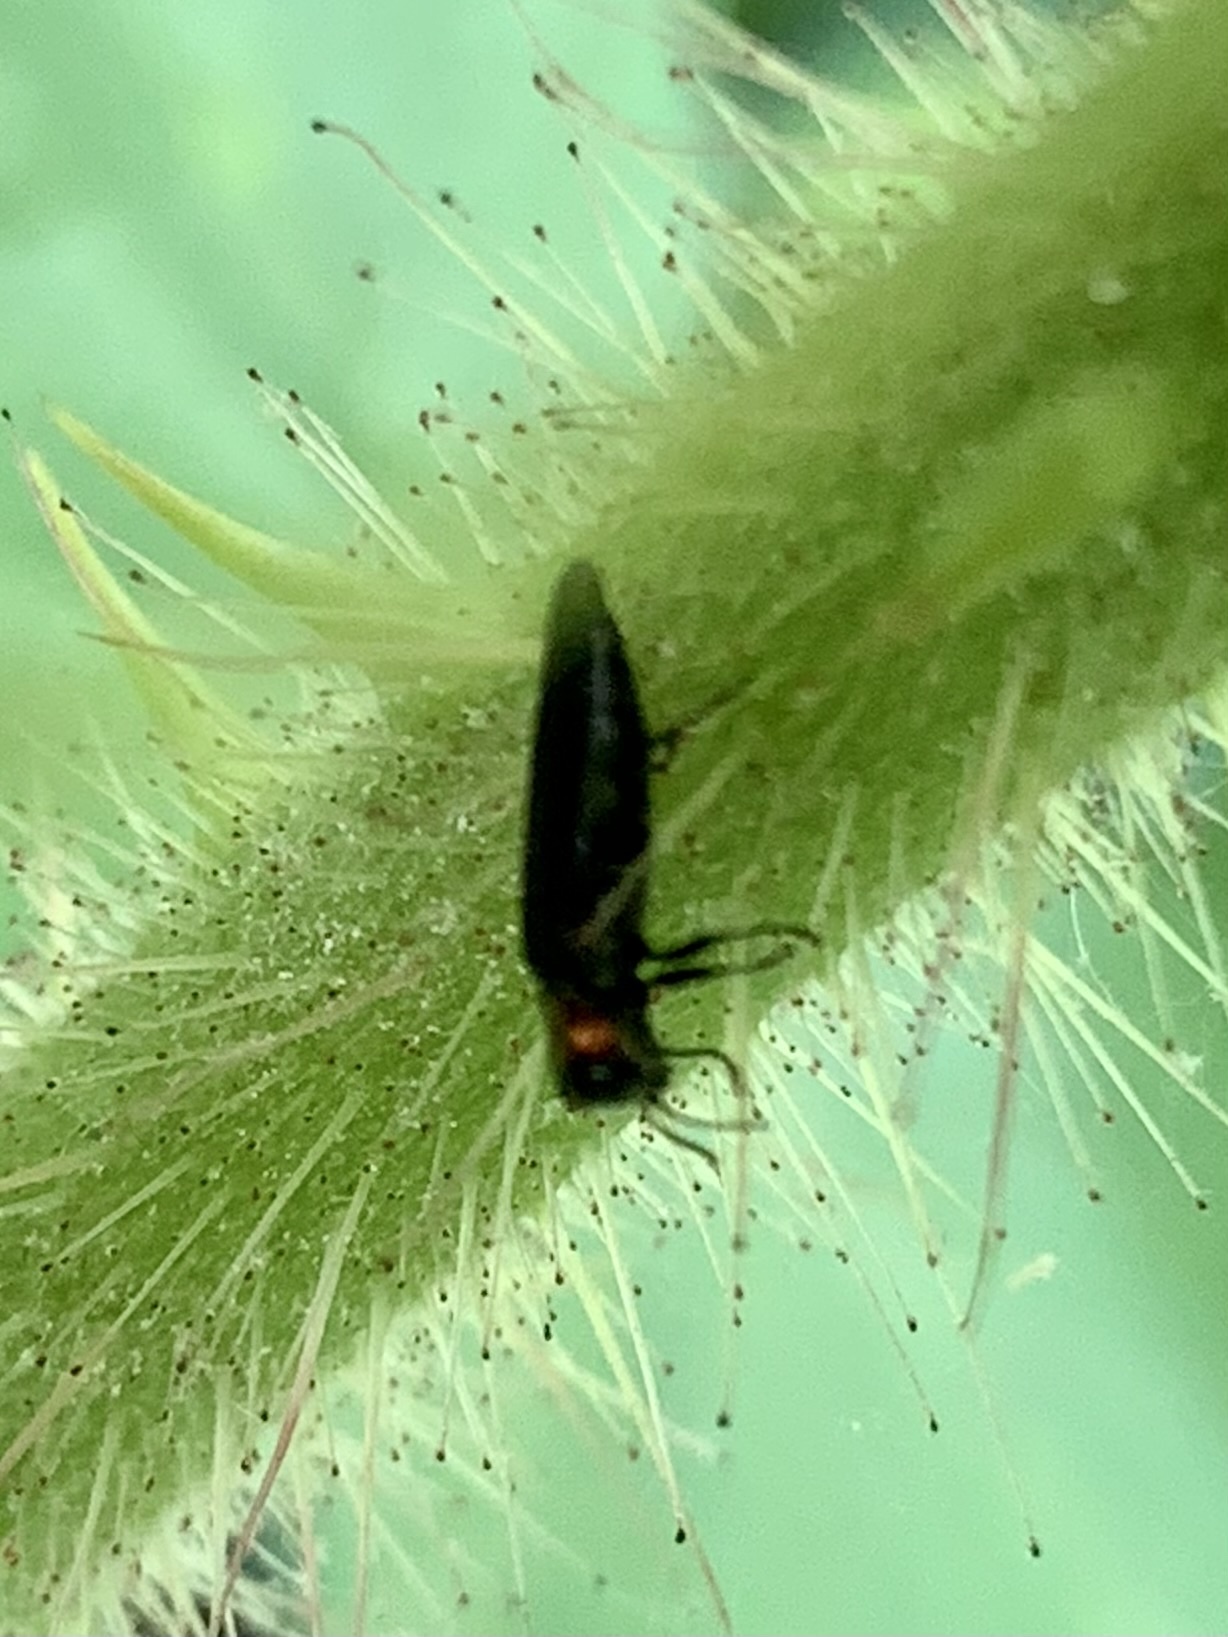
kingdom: Animalia
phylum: Arthropoda
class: Insecta
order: Coleoptera
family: Buprestidae
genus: Agrilus
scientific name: Agrilus ruficollis
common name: Red-necked cane borer beetle
